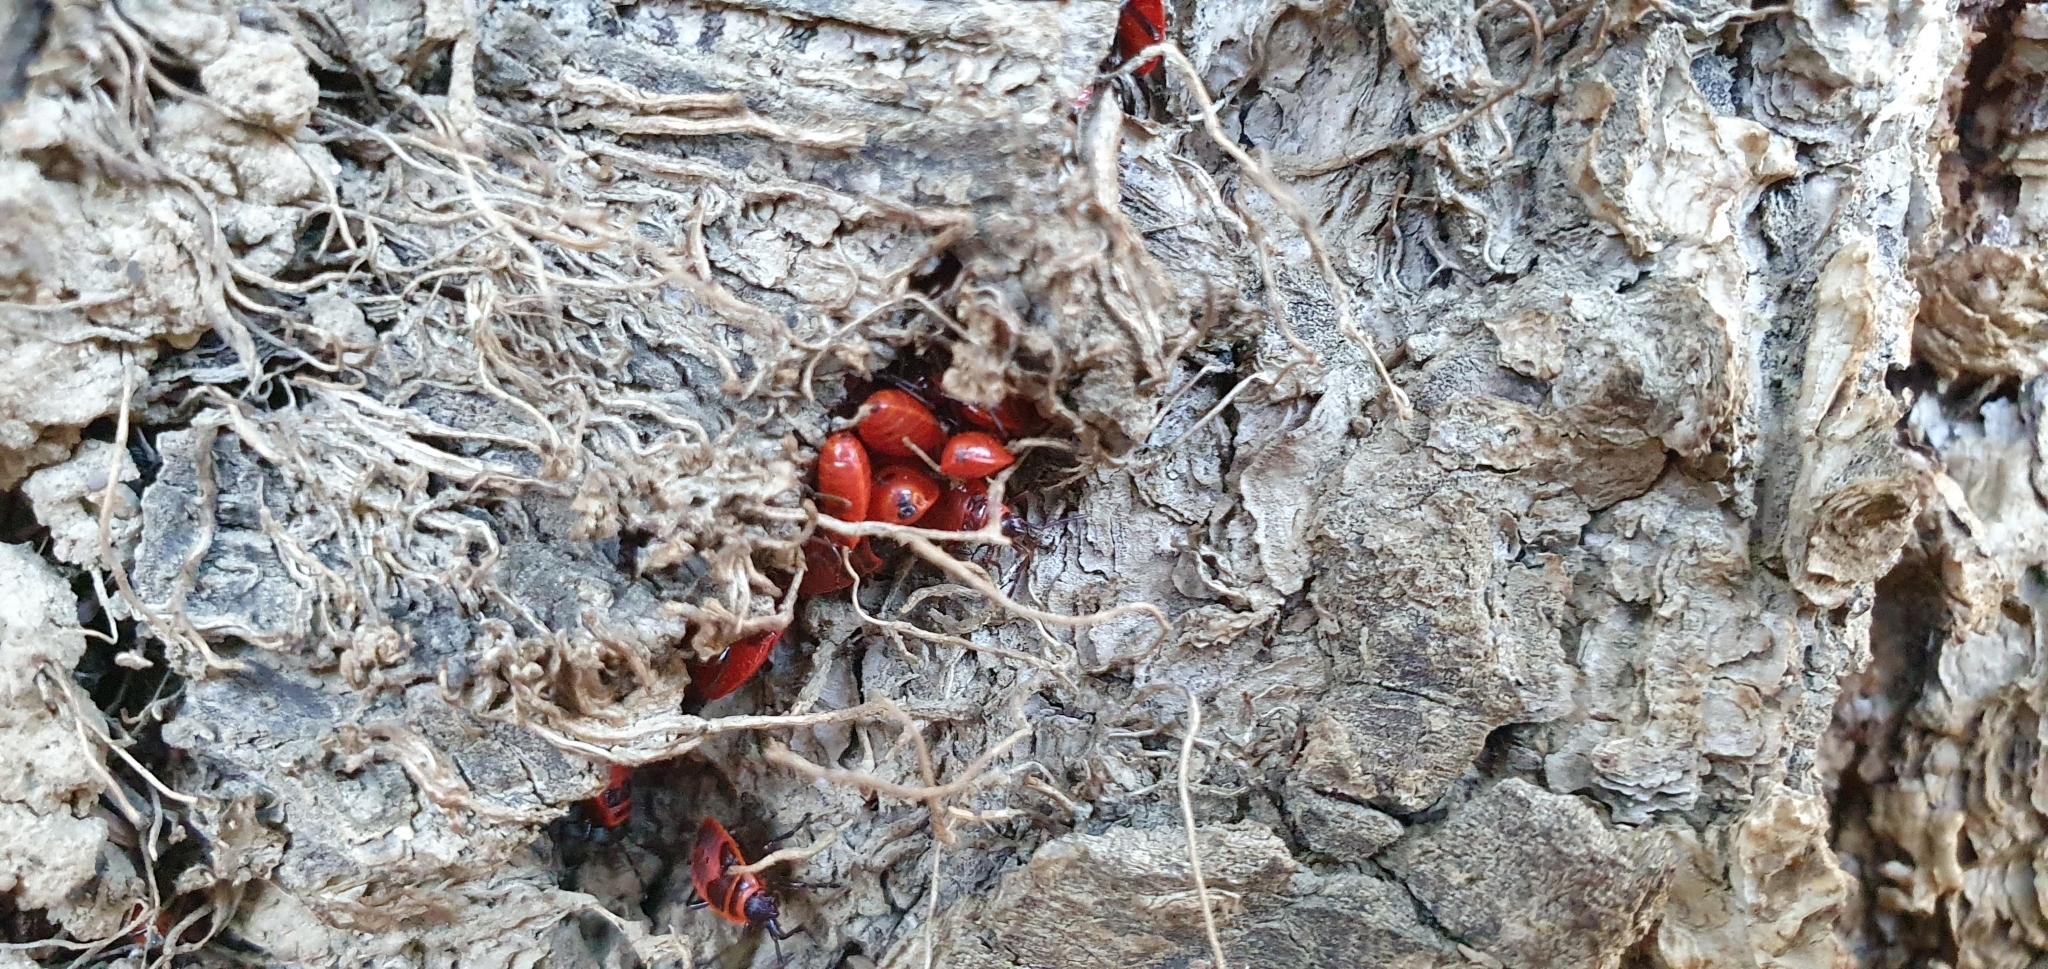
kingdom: Animalia
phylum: Arthropoda
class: Insecta
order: Hemiptera
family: Pyrrhocoridae
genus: Pyrrhocoris
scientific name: Pyrrhocoris apterus
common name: Firebug
